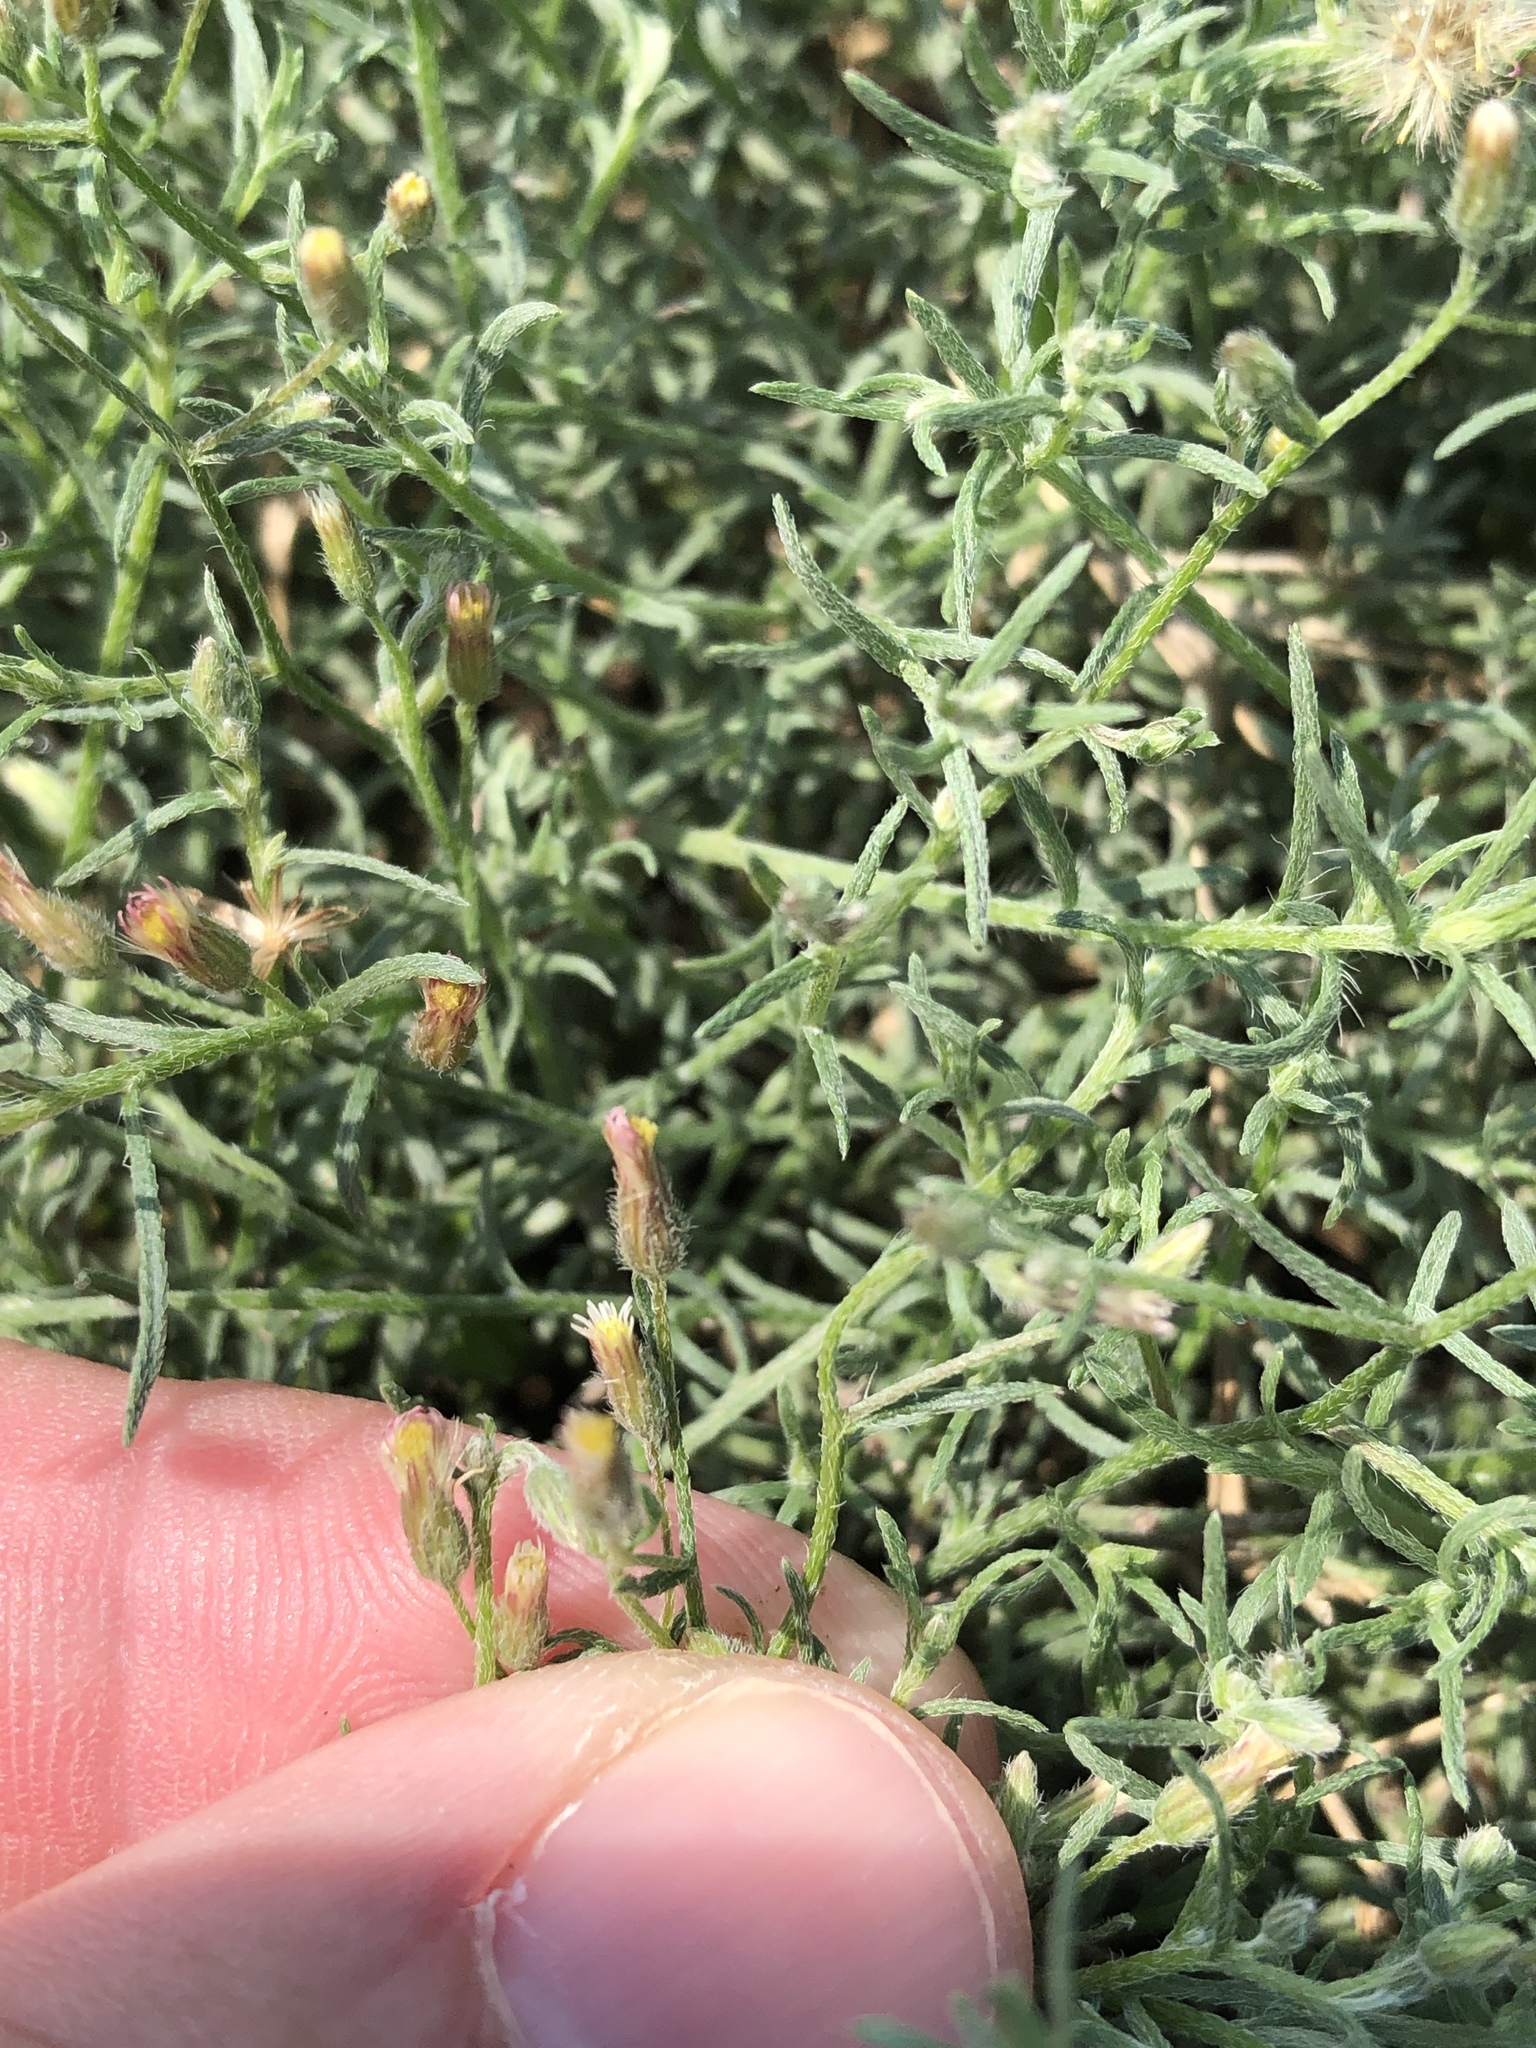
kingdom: Plantae
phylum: Tracheophyta
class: Magnoliopsida
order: Asterales
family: Asteraceae
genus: Erigeron
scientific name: Erigeron divaricatus
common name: Dwarf conyza
